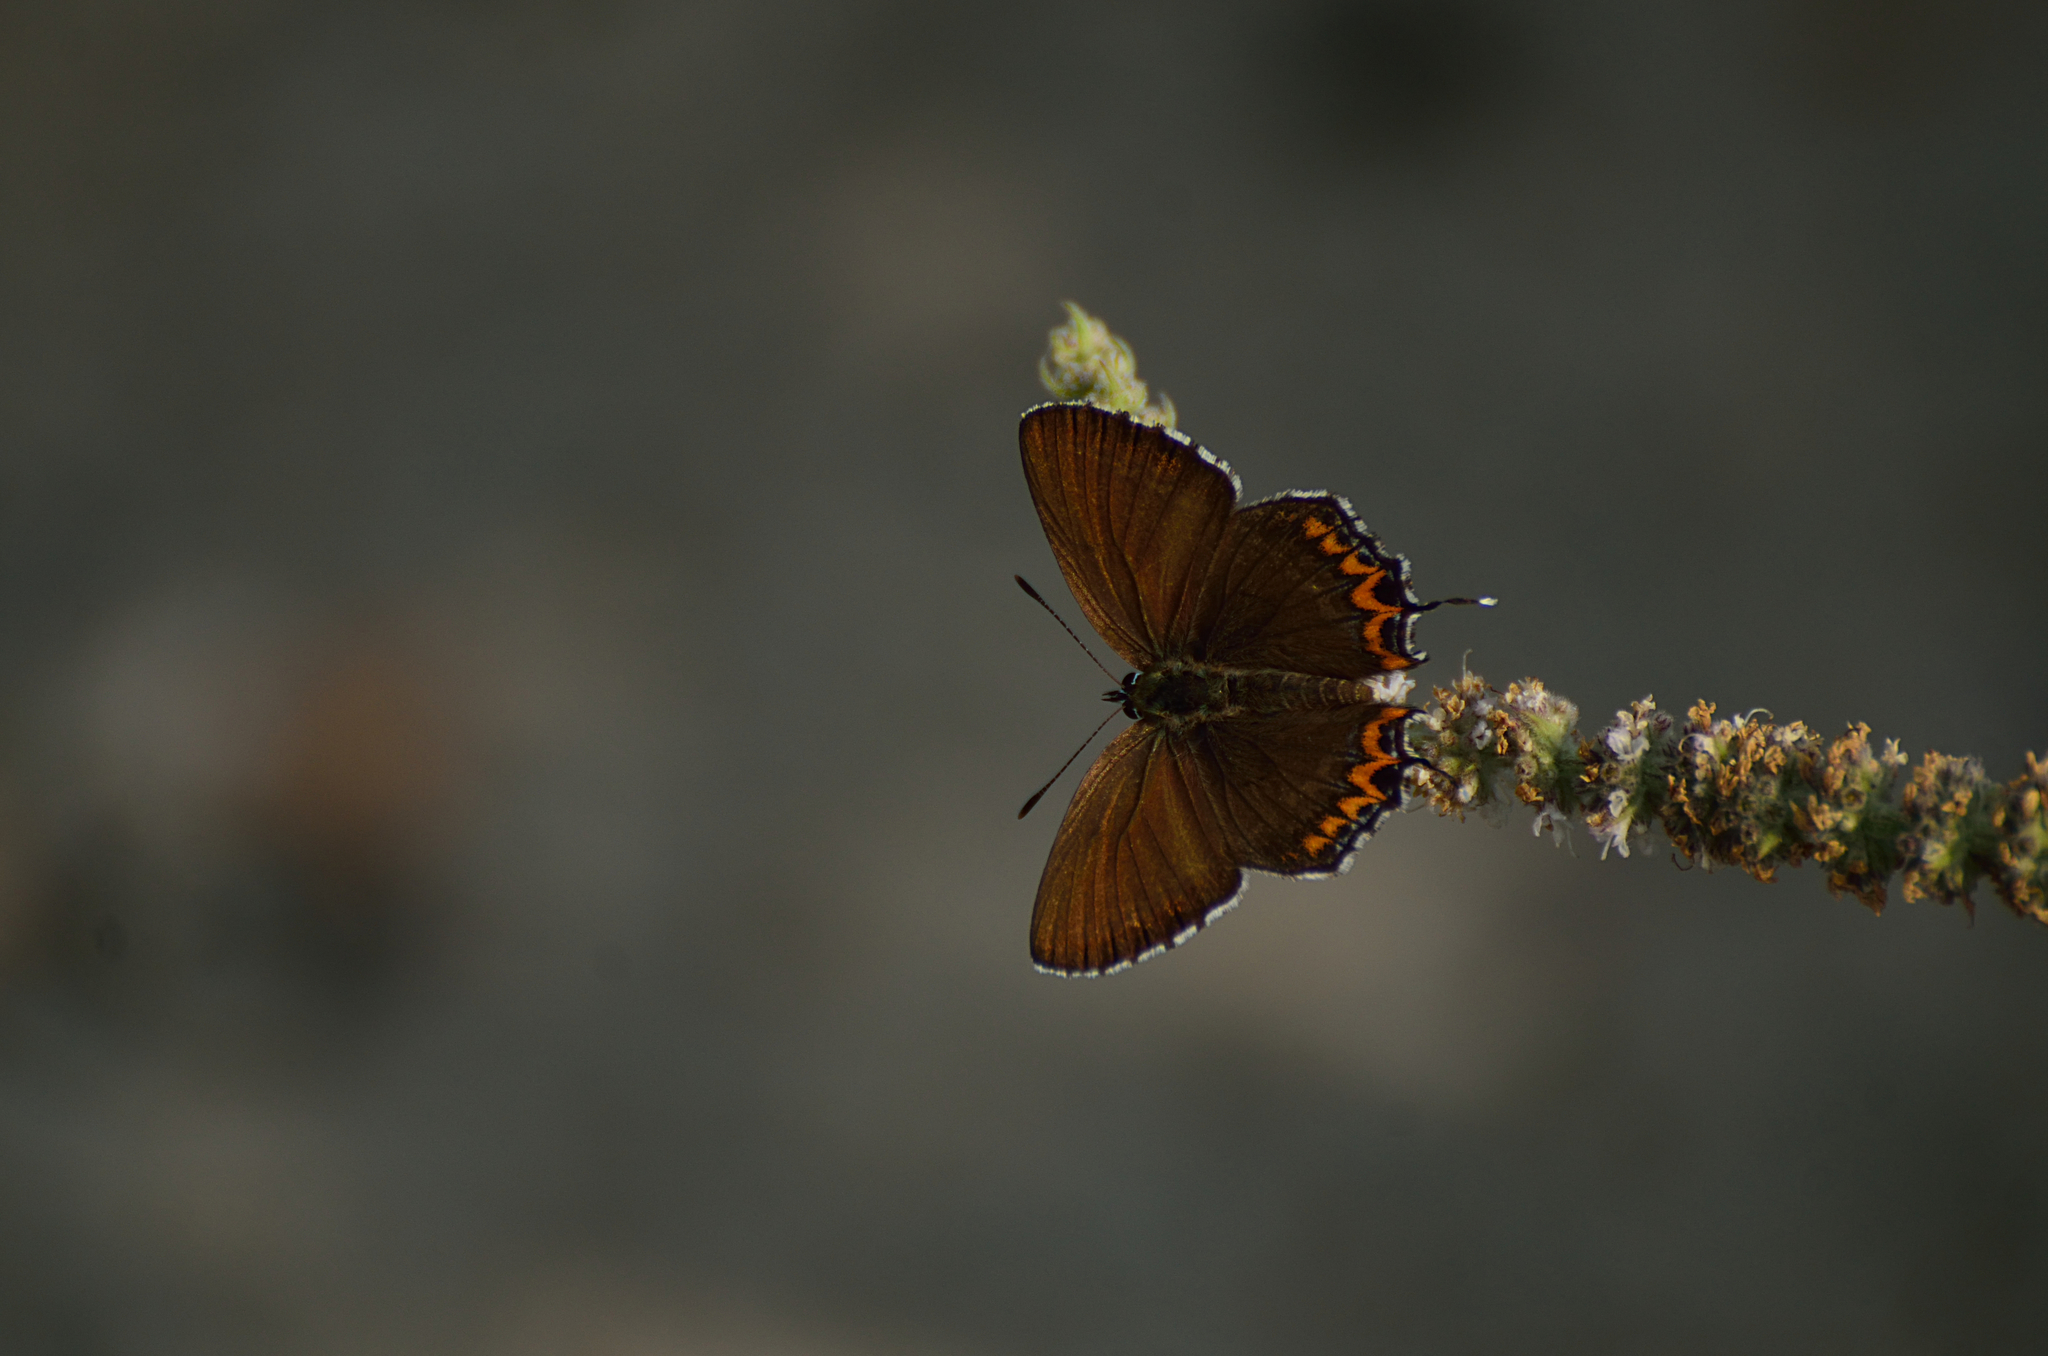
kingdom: Animalia
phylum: Arthropoda
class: Insecta
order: Lepidoptera
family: Lycaenidae
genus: Heliophorus
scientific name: Heliophorus sena
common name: Sorrel sapphire
